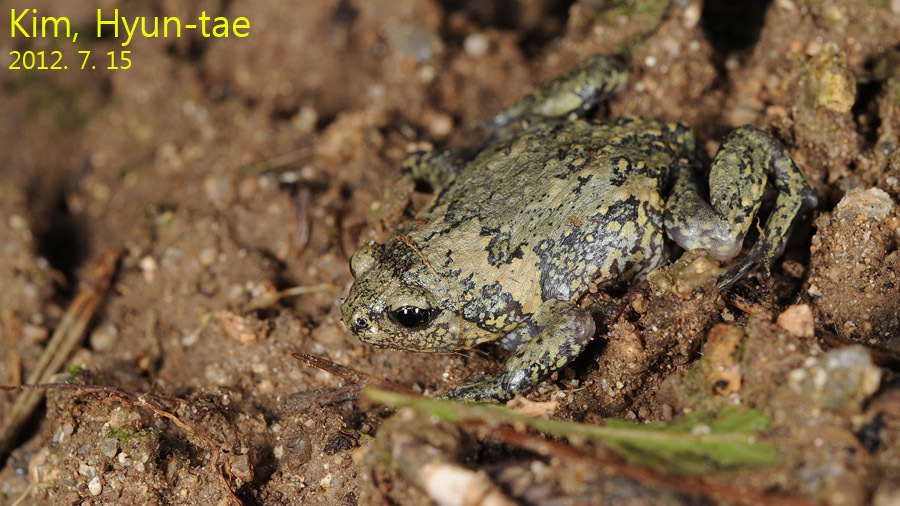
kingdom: Animalia
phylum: Chordata
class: Amphibia
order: Anura
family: Microhylidae
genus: Kaloula
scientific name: Kaloula borealis
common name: Boreal digging frog
